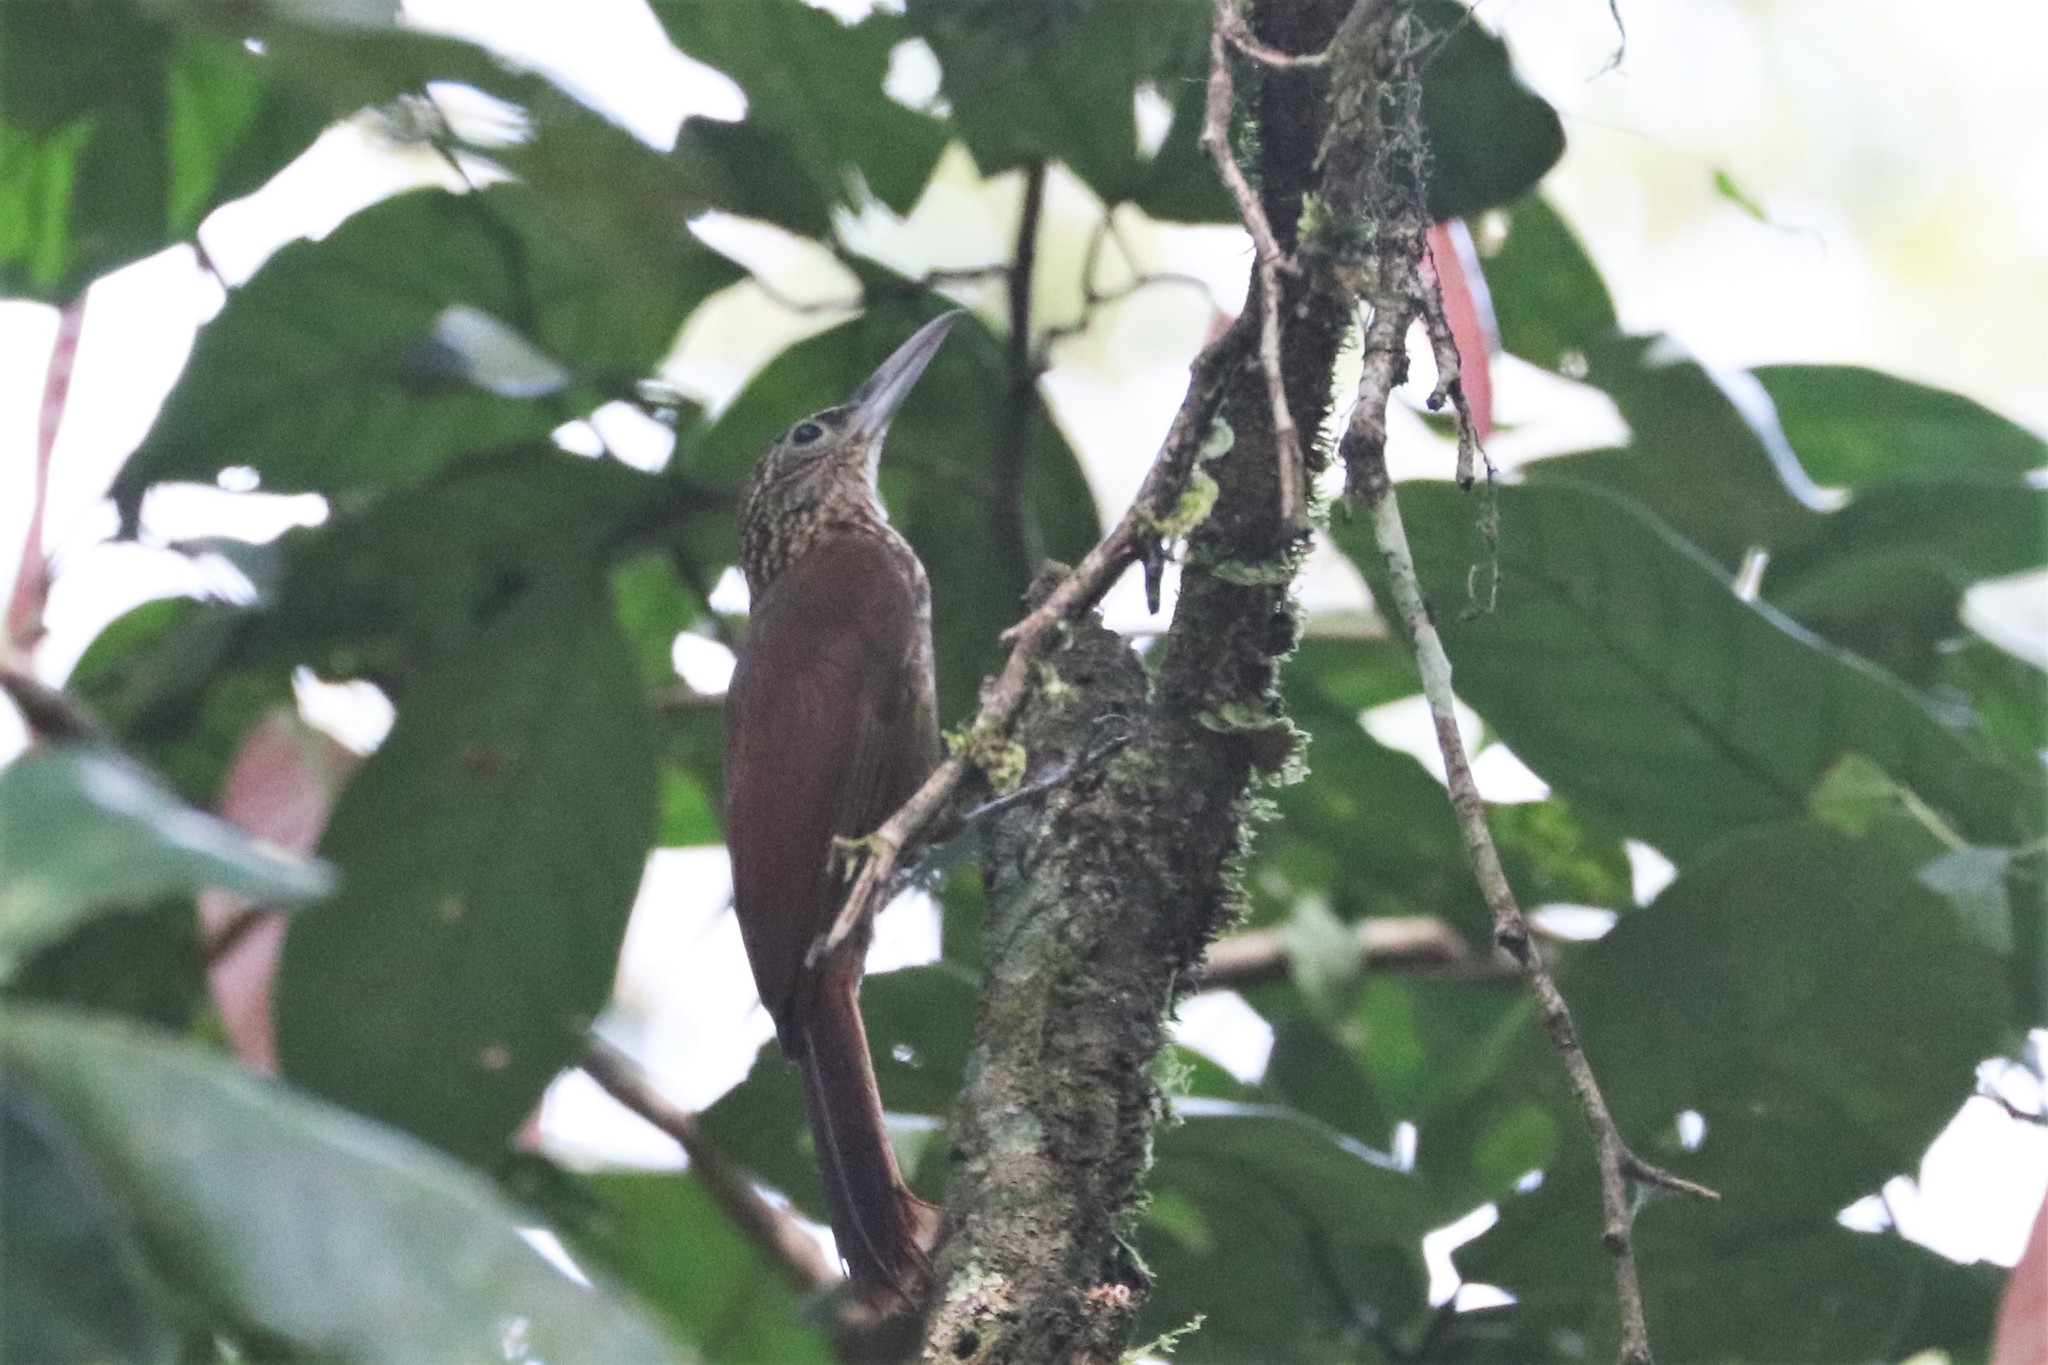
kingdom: Animalia
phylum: Chordata
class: Aves
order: Passeriformes
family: Furnariidae
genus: Xiphorhynchus
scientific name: Xiphorhynchus guttatus
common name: Buff-throated woodcreeper
